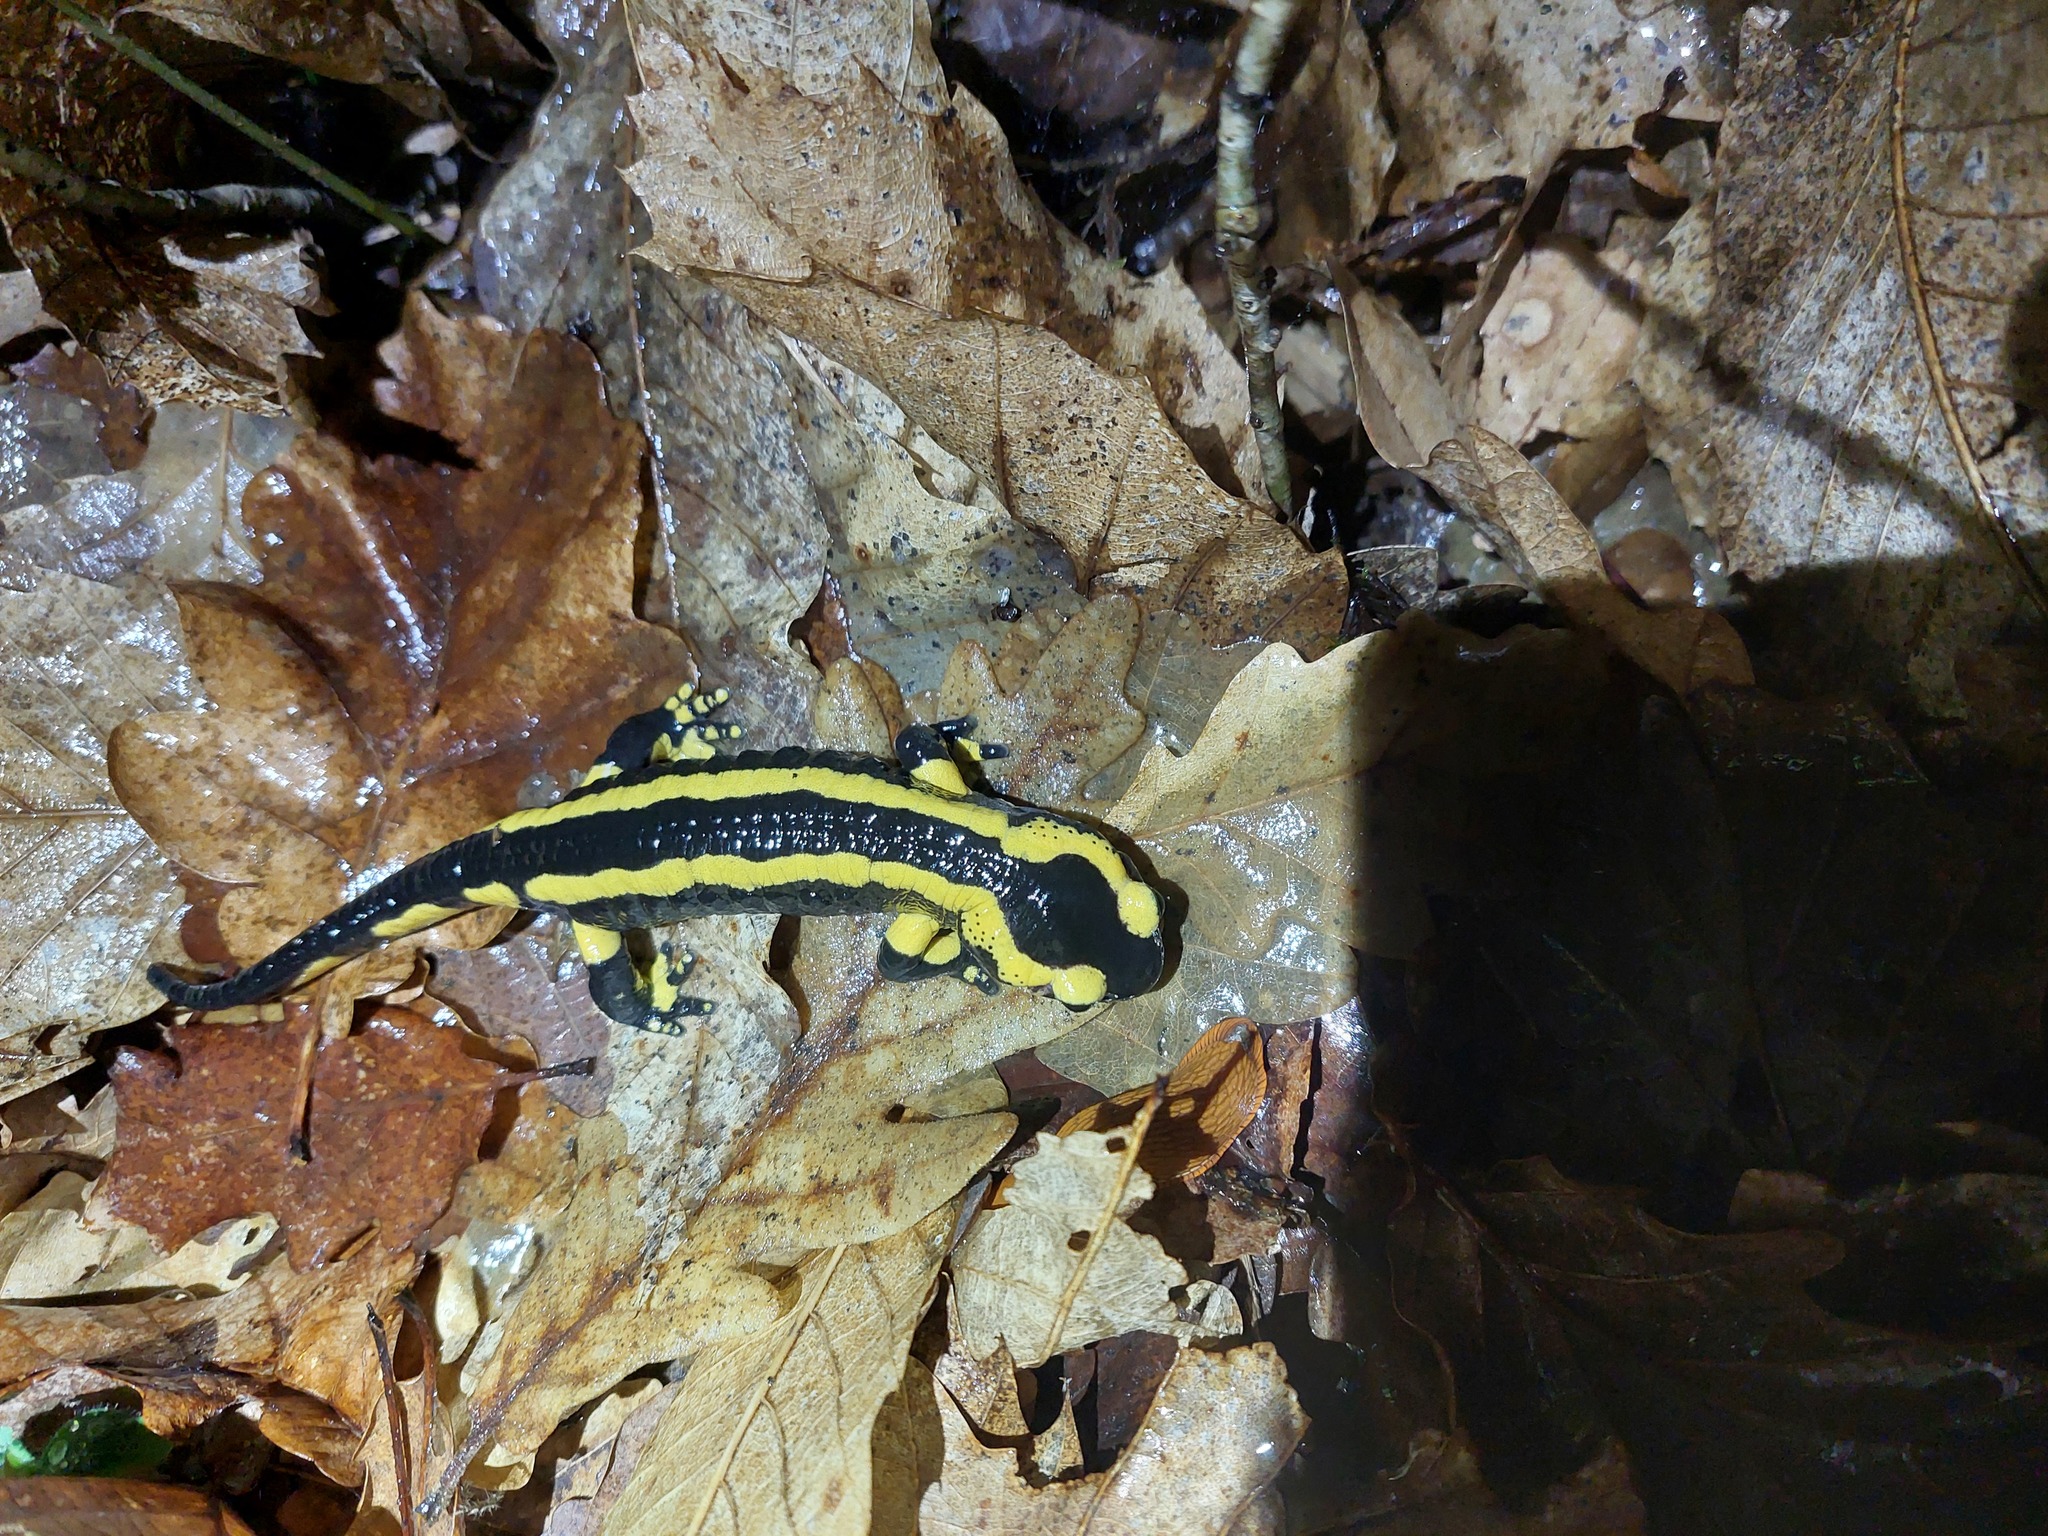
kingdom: Animalia
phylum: Chordata
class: Amphibia
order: Caudata
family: Salamandridae
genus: Salamandra
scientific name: Salamandra salamandra
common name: Fire salamander
